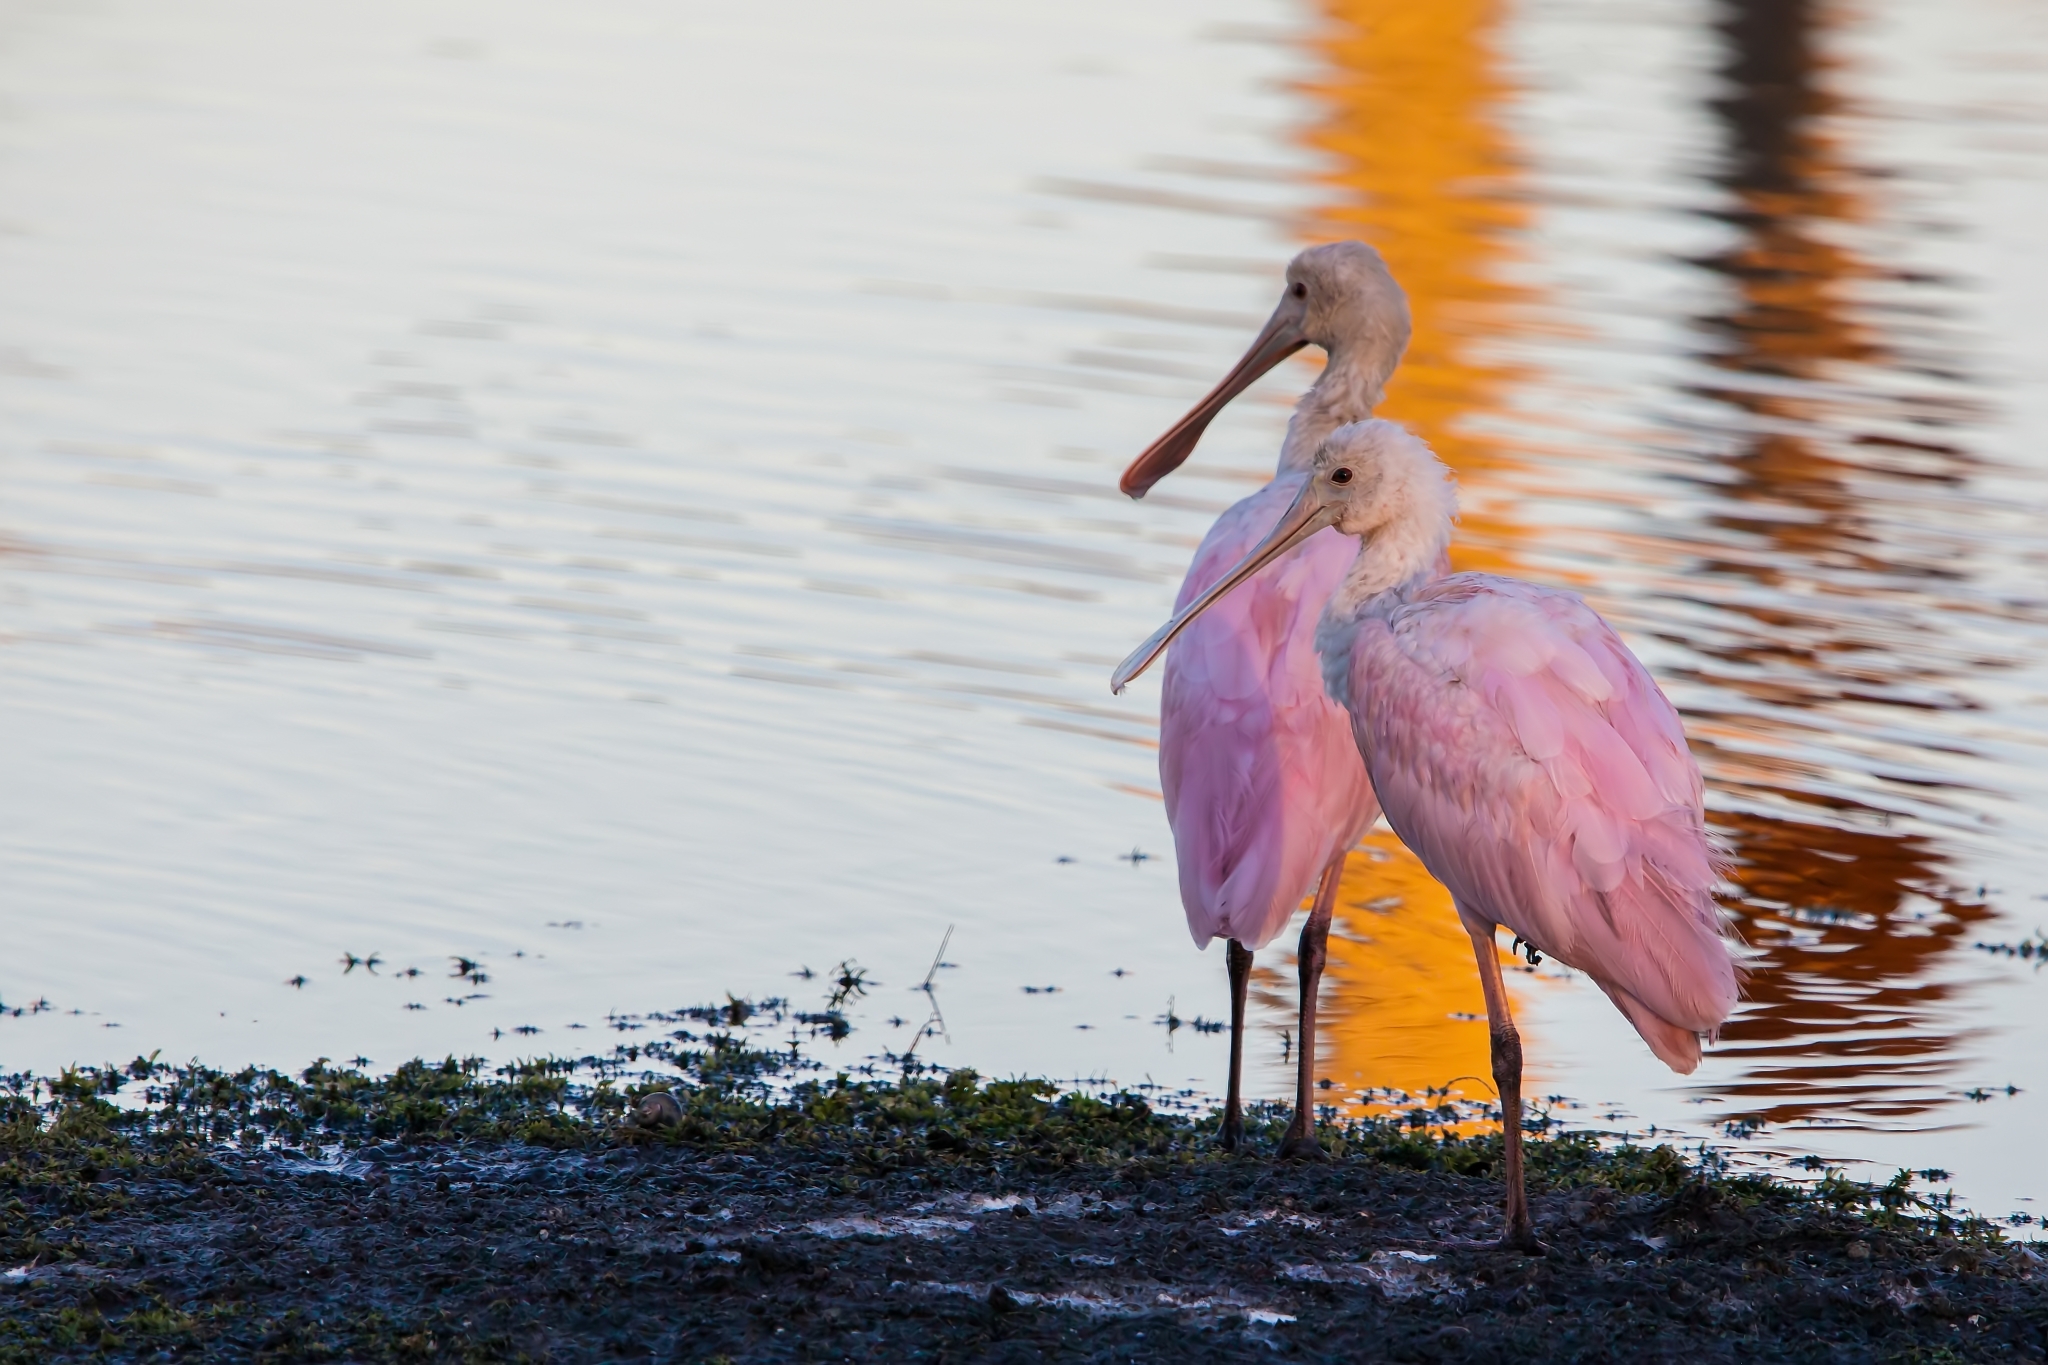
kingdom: Animalia
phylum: Chordata
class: Aves
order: Pelecaniformes
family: Threskiornithidae
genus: Platalea
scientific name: Platalea ajaja
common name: Roseate spoonbill
